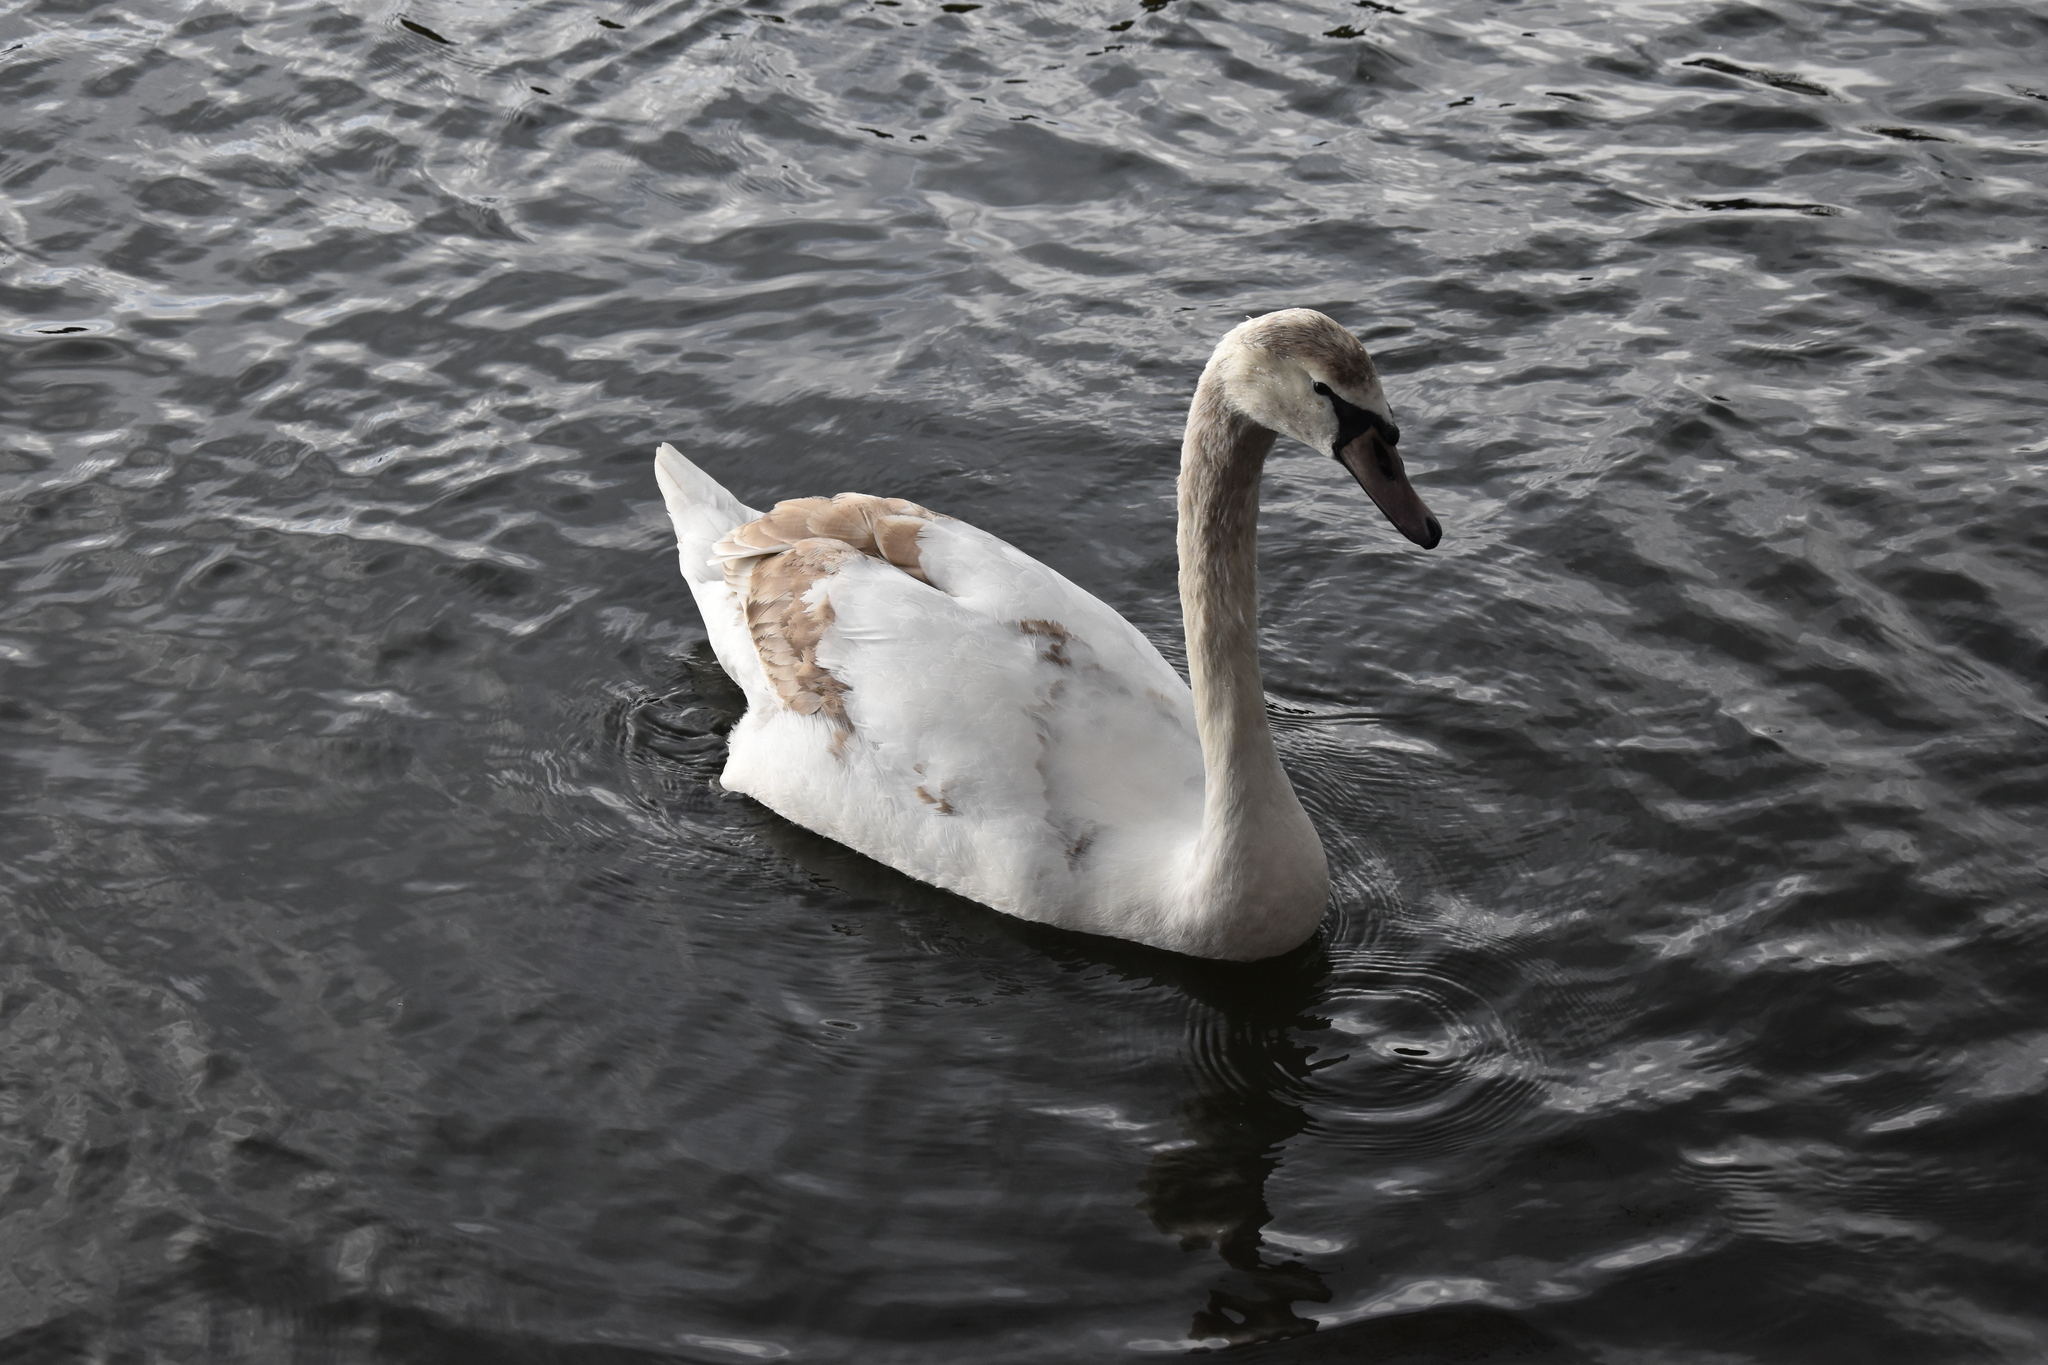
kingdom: Animalia
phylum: Chordata
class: Aves
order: Anseriformes
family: Anatidae
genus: Cygnus
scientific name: Cygnus olor
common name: Mute swan
